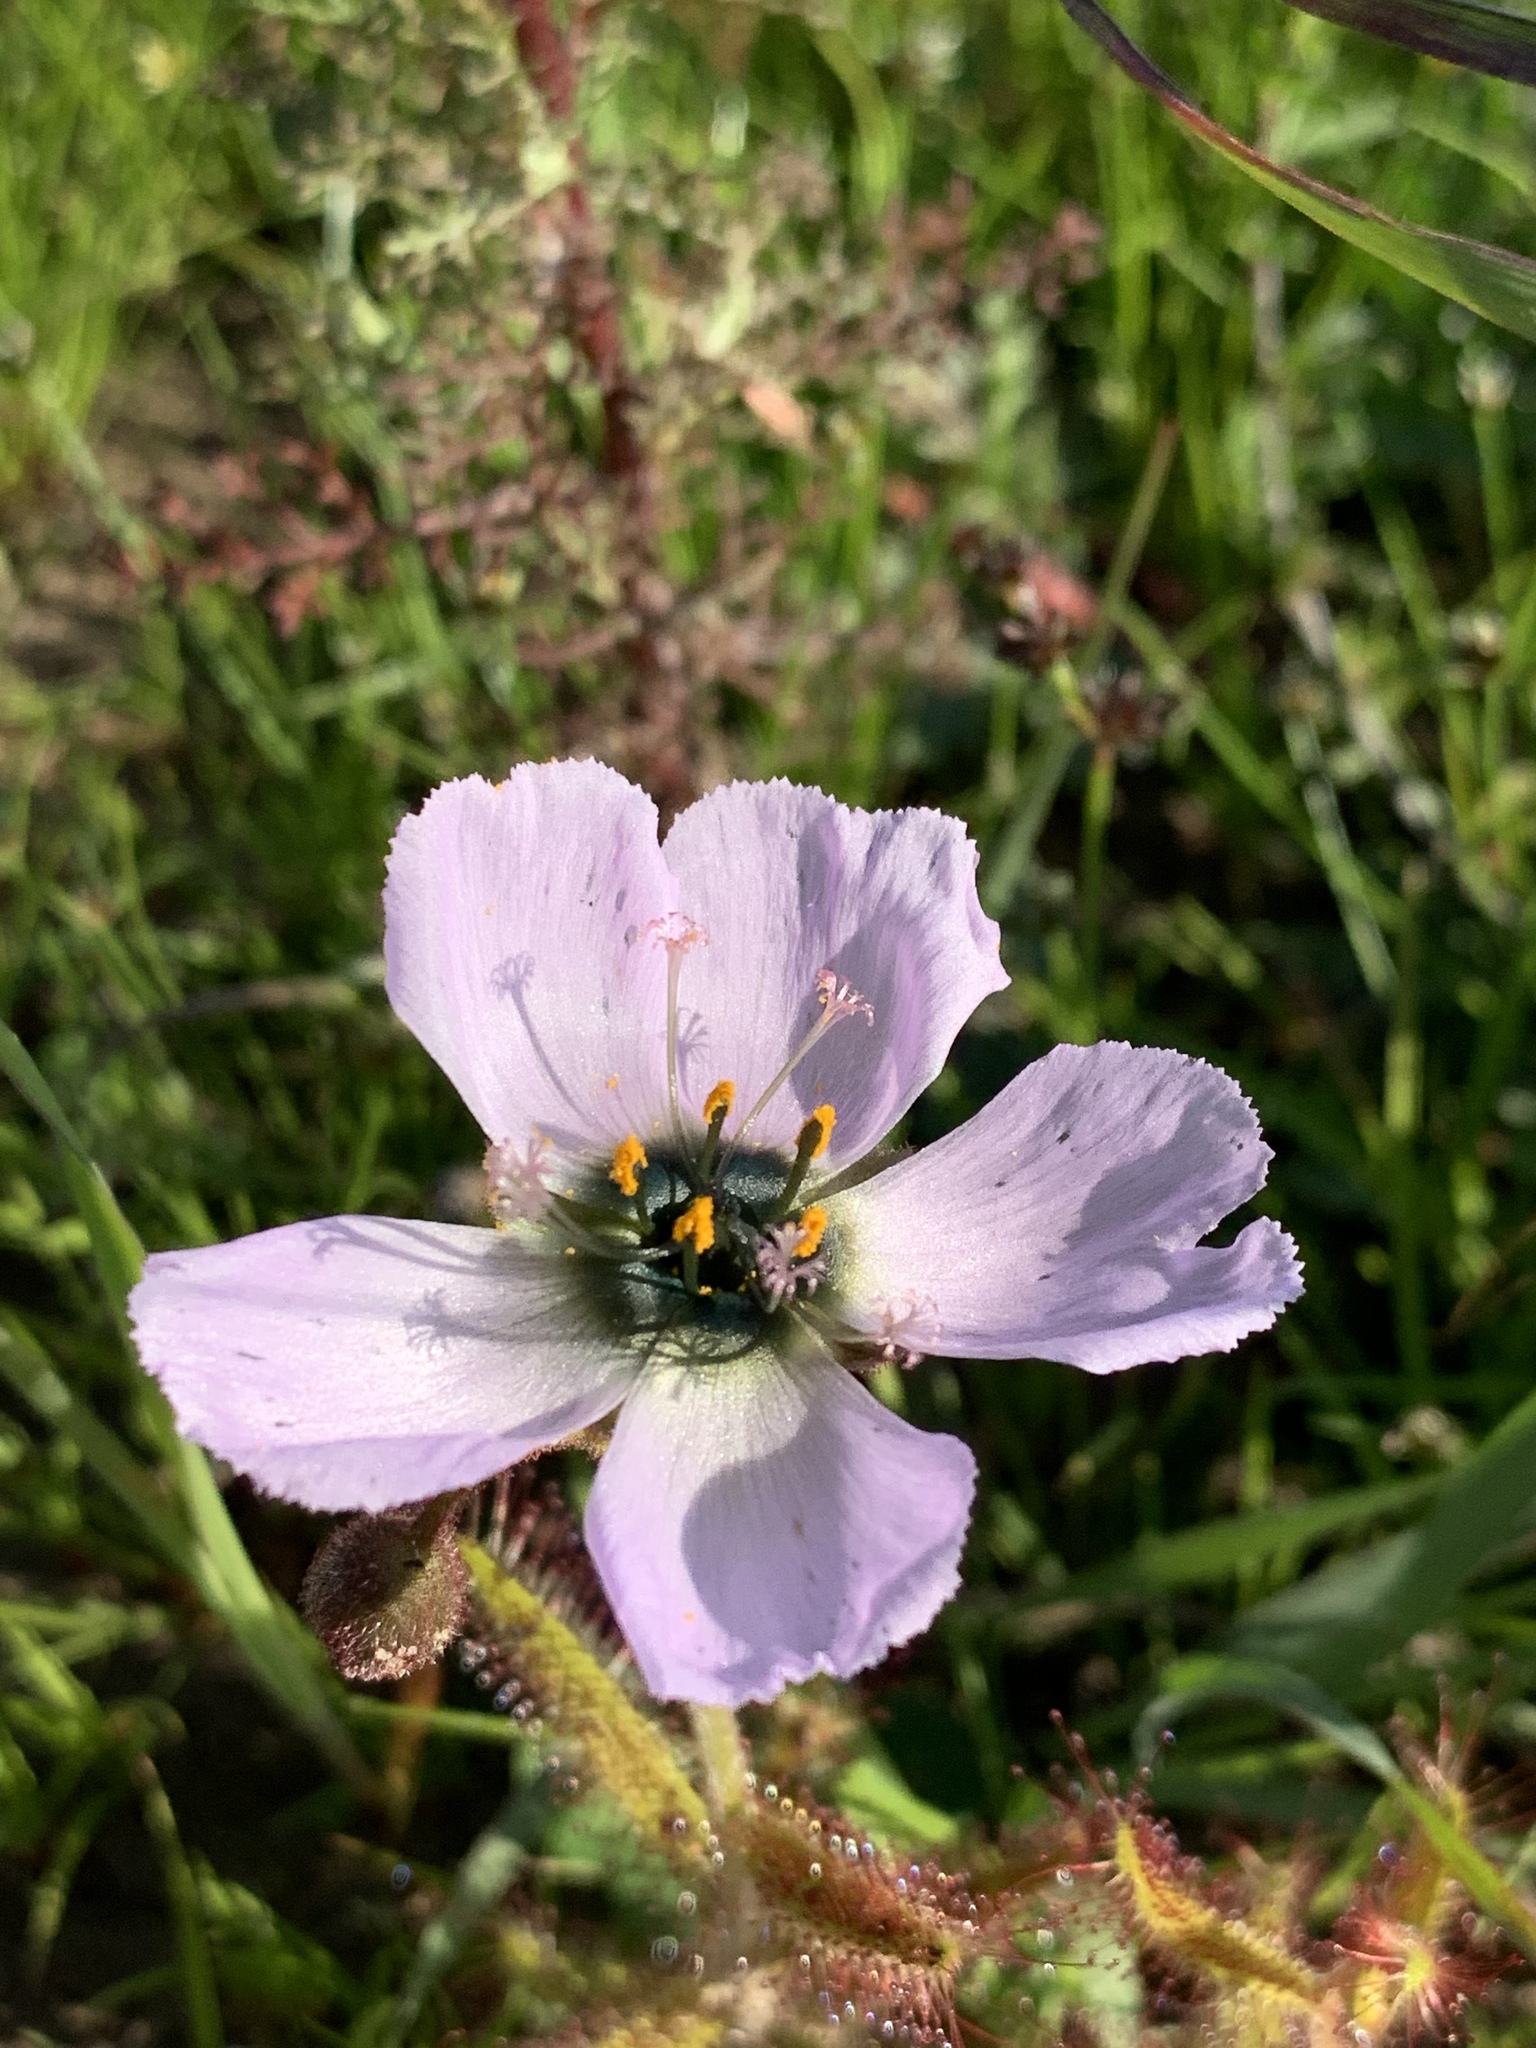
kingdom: Plantae
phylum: Tracheophyta
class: Magnoliopsida
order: Caryophyllales
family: Droseraceae
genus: Drosera
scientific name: Drosera cistiflora
